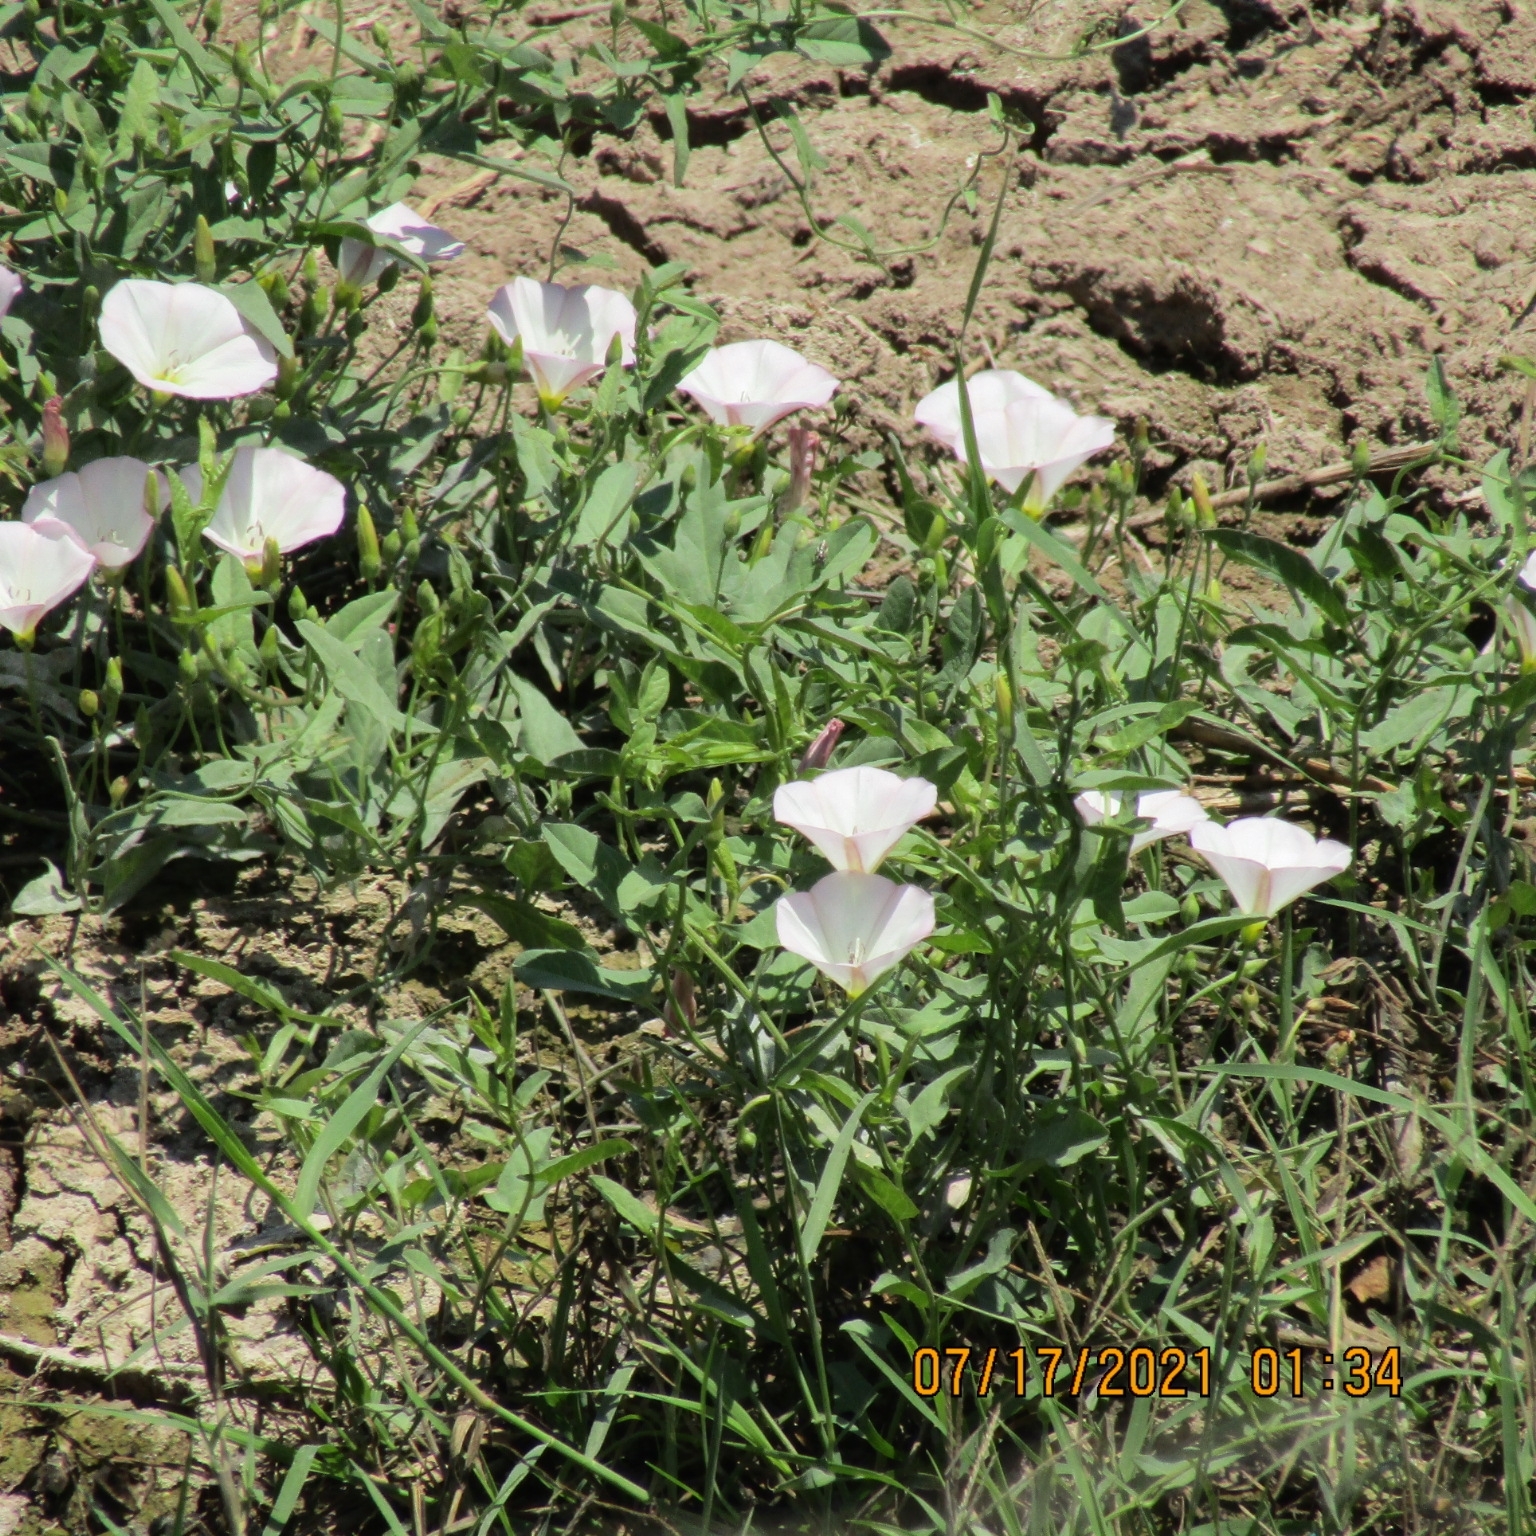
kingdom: Plantae
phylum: Tracheophyta
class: Magnoliopsida
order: Solanales
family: Convolvulaceae
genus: Convolvulus
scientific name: Convolvulus arvensis
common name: Field bindweed
